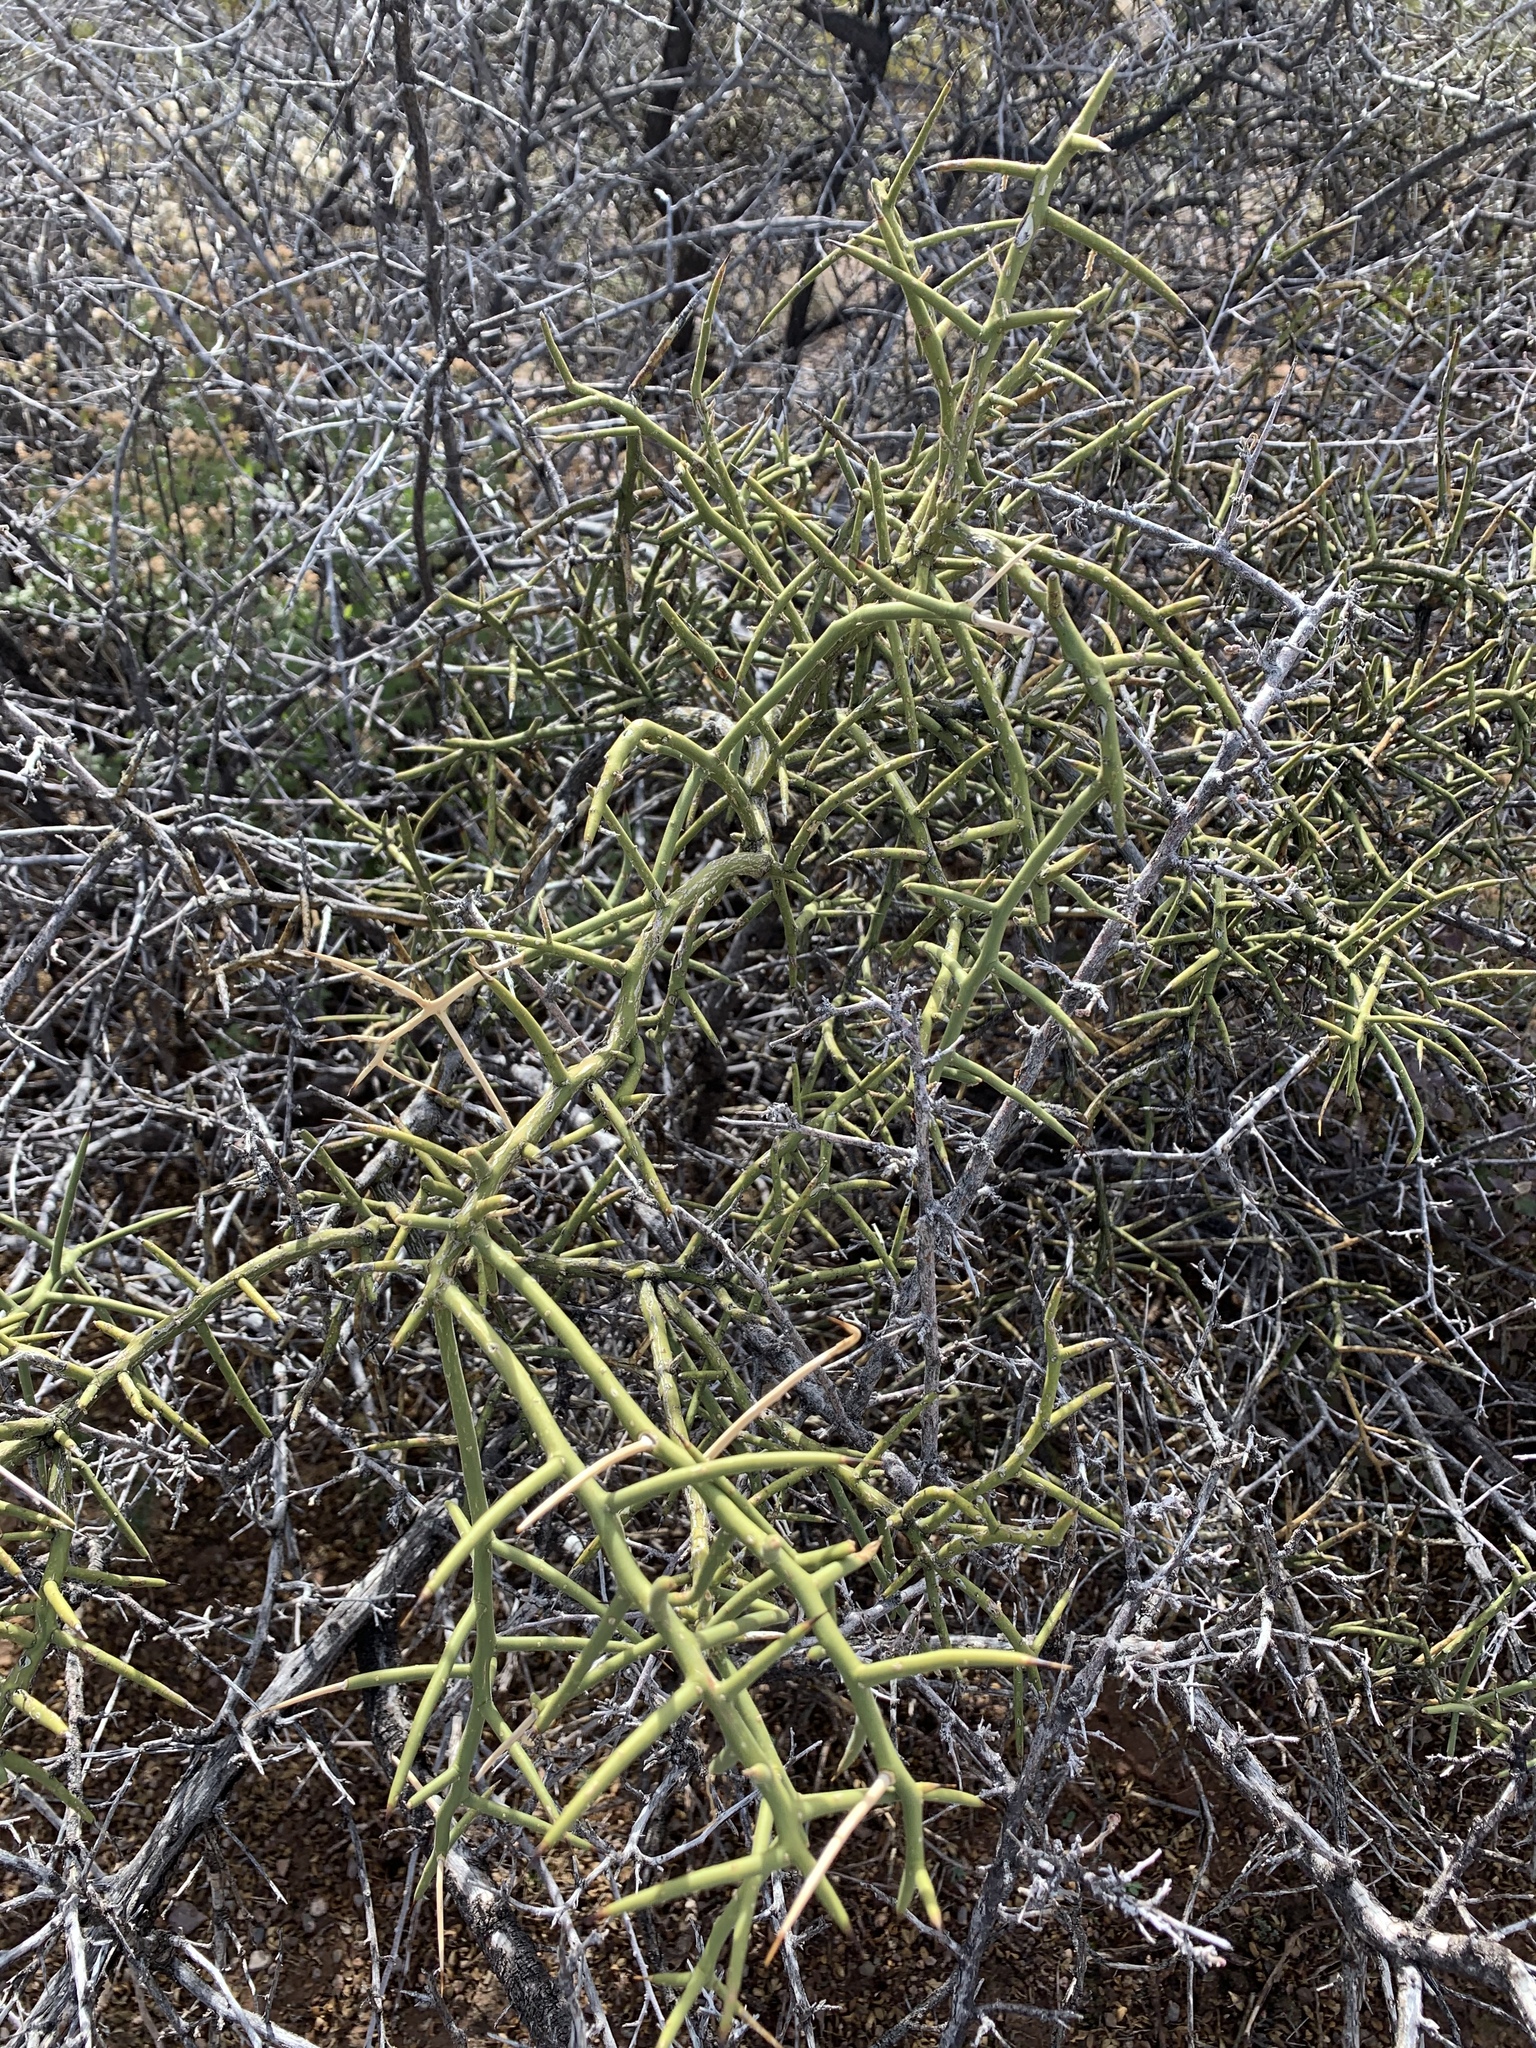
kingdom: Plantae
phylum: Tracheophyta
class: Magnoliopsida
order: Brassicales
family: Koeberliniaceae
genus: Koeberlinia
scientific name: Koeberlinia spinosa
